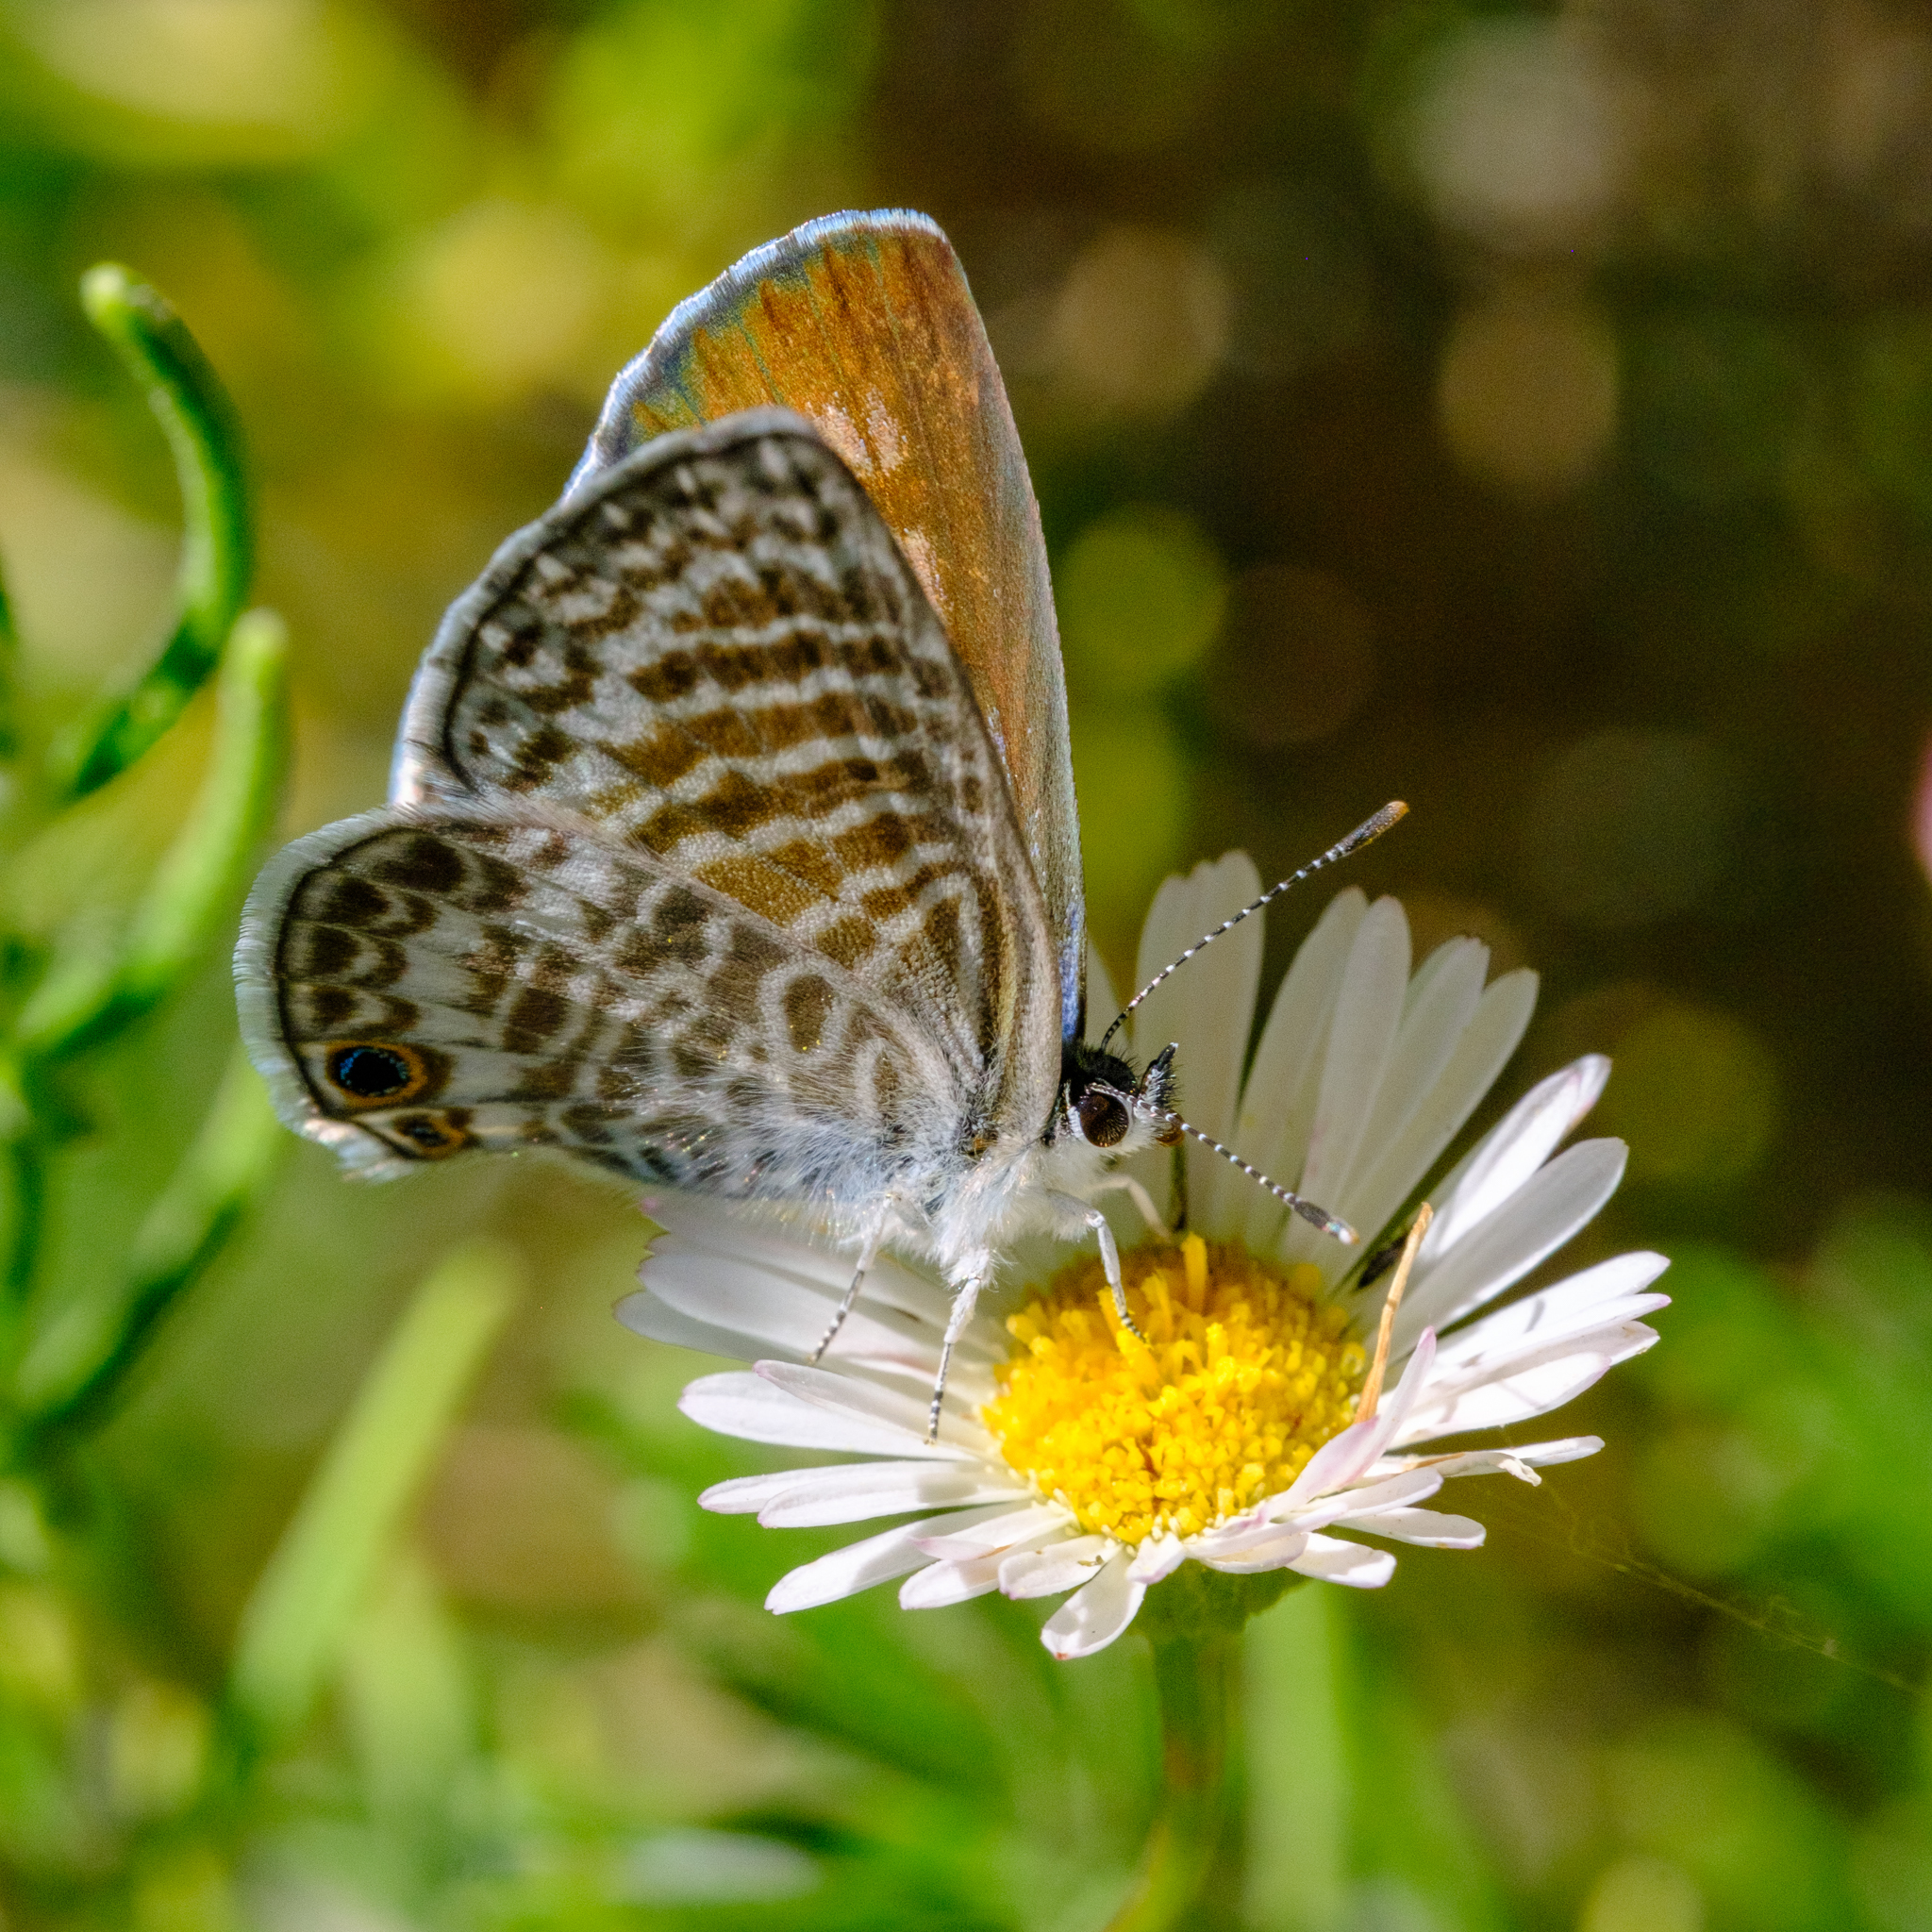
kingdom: Animalia
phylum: Arthropoda
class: Insecta
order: Lepidoptera
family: Lycaenidae
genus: Leptotes
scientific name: Leptotes marina
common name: Marine blue
